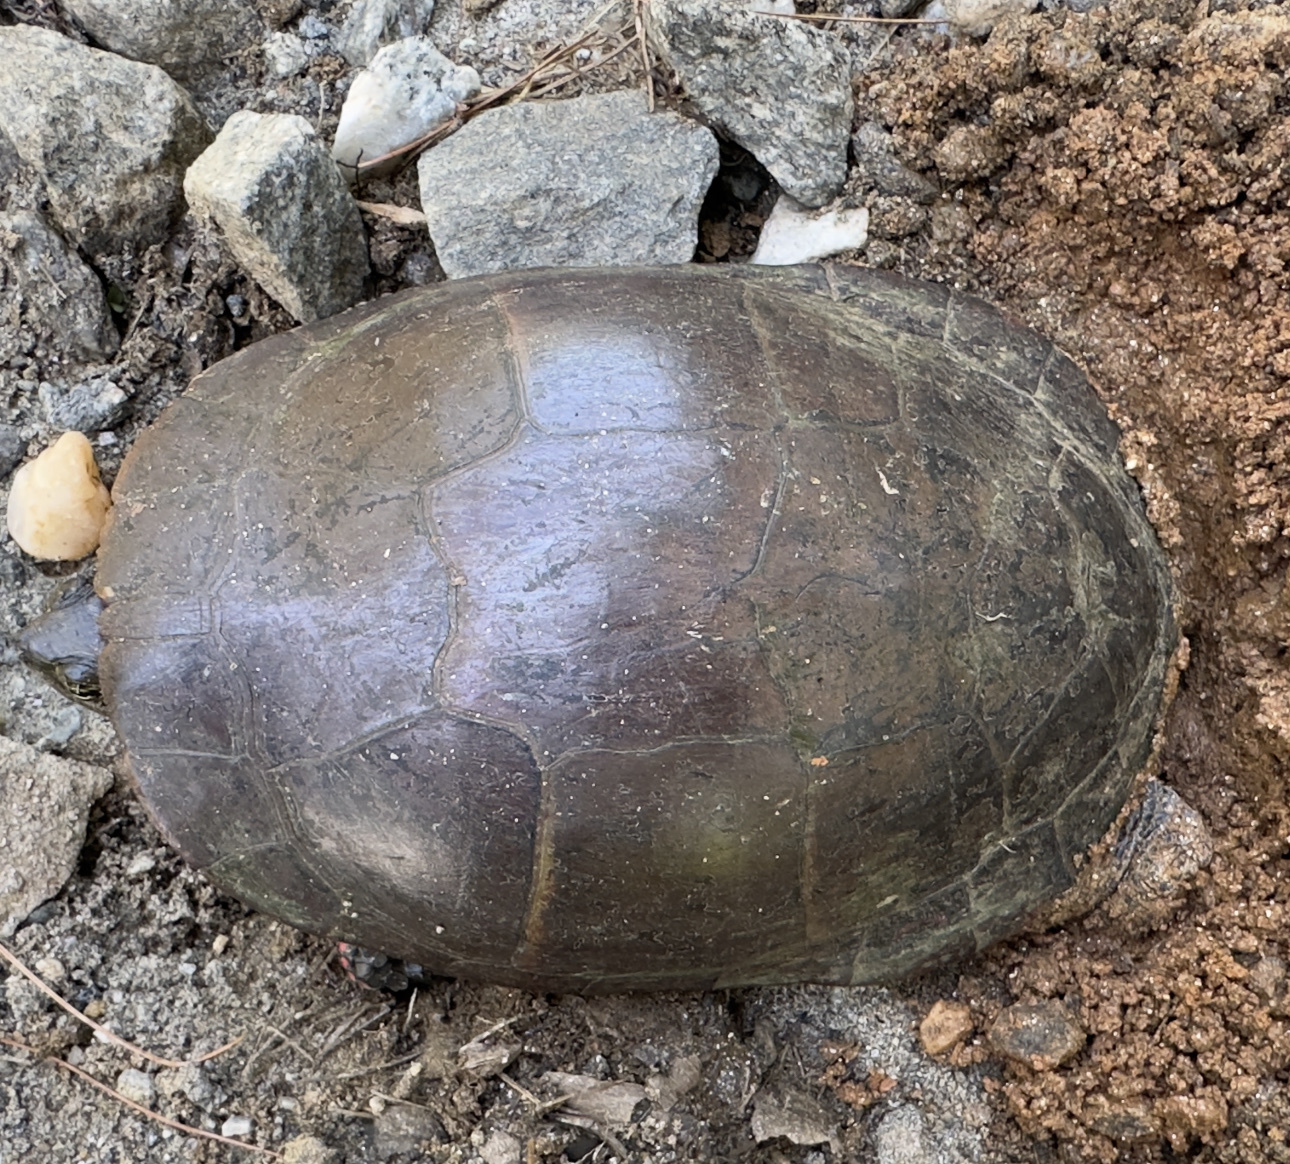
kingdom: Animalia
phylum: Chordata
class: Testudines
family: Emydidae
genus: Chrysemys
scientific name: Chrysemys picta
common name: Painted turtle
